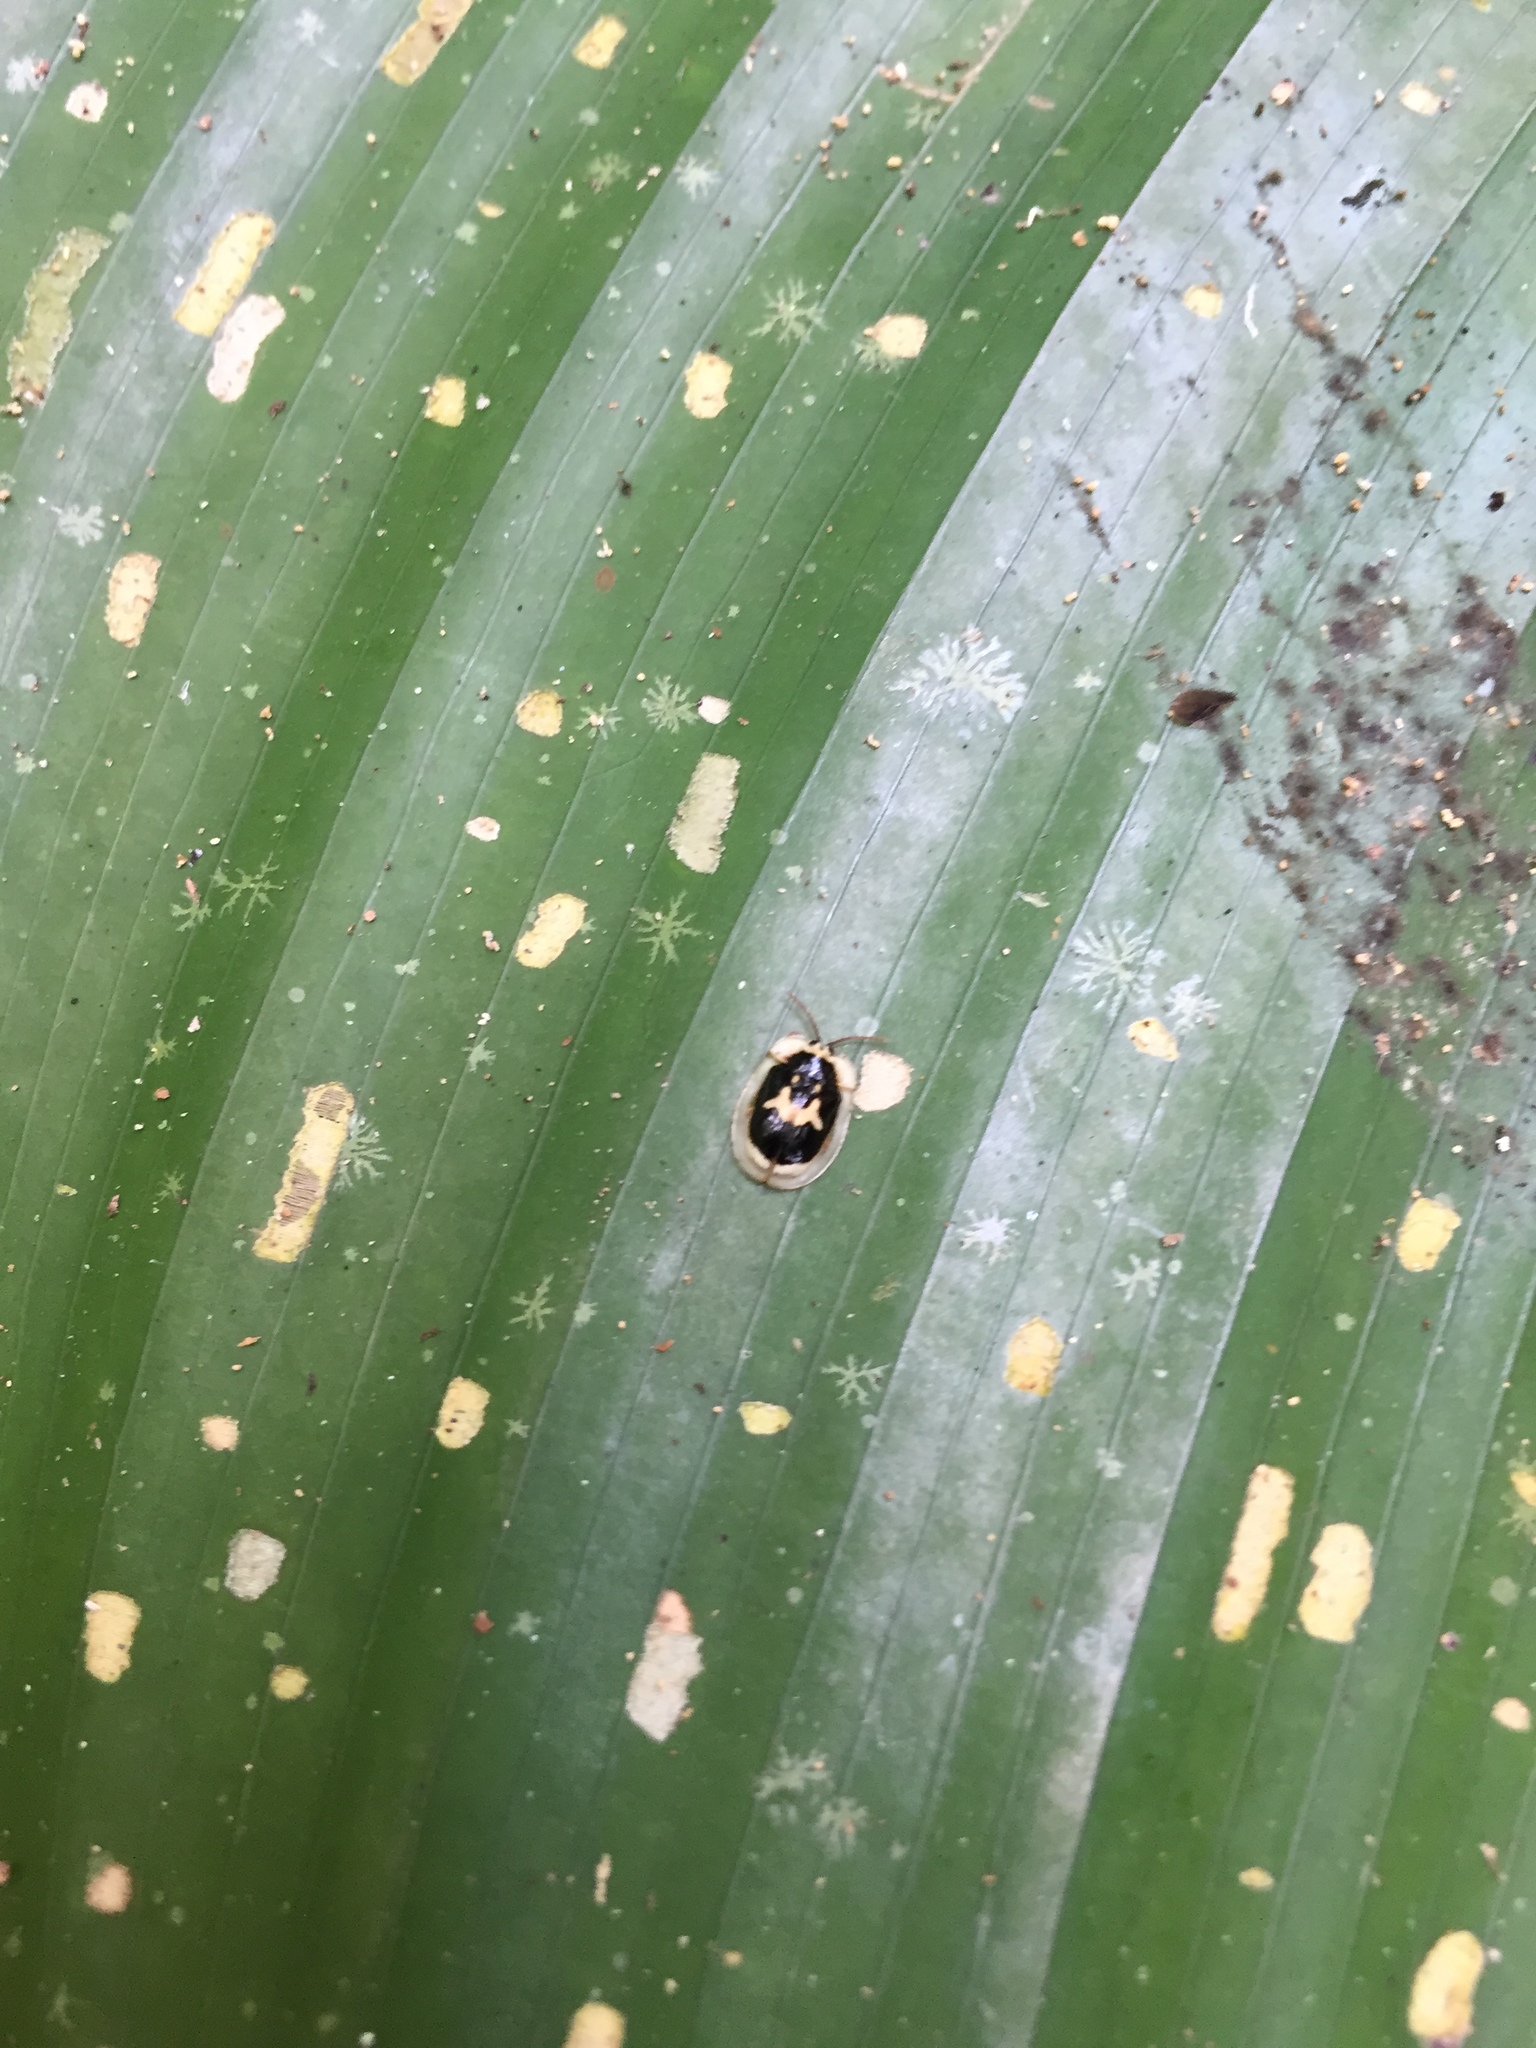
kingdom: Animalia
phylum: Arthropoda
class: Insecta
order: Coleoptera
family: Chrysomelidae
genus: Aslamidium
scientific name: Aslamidium semicirculare
